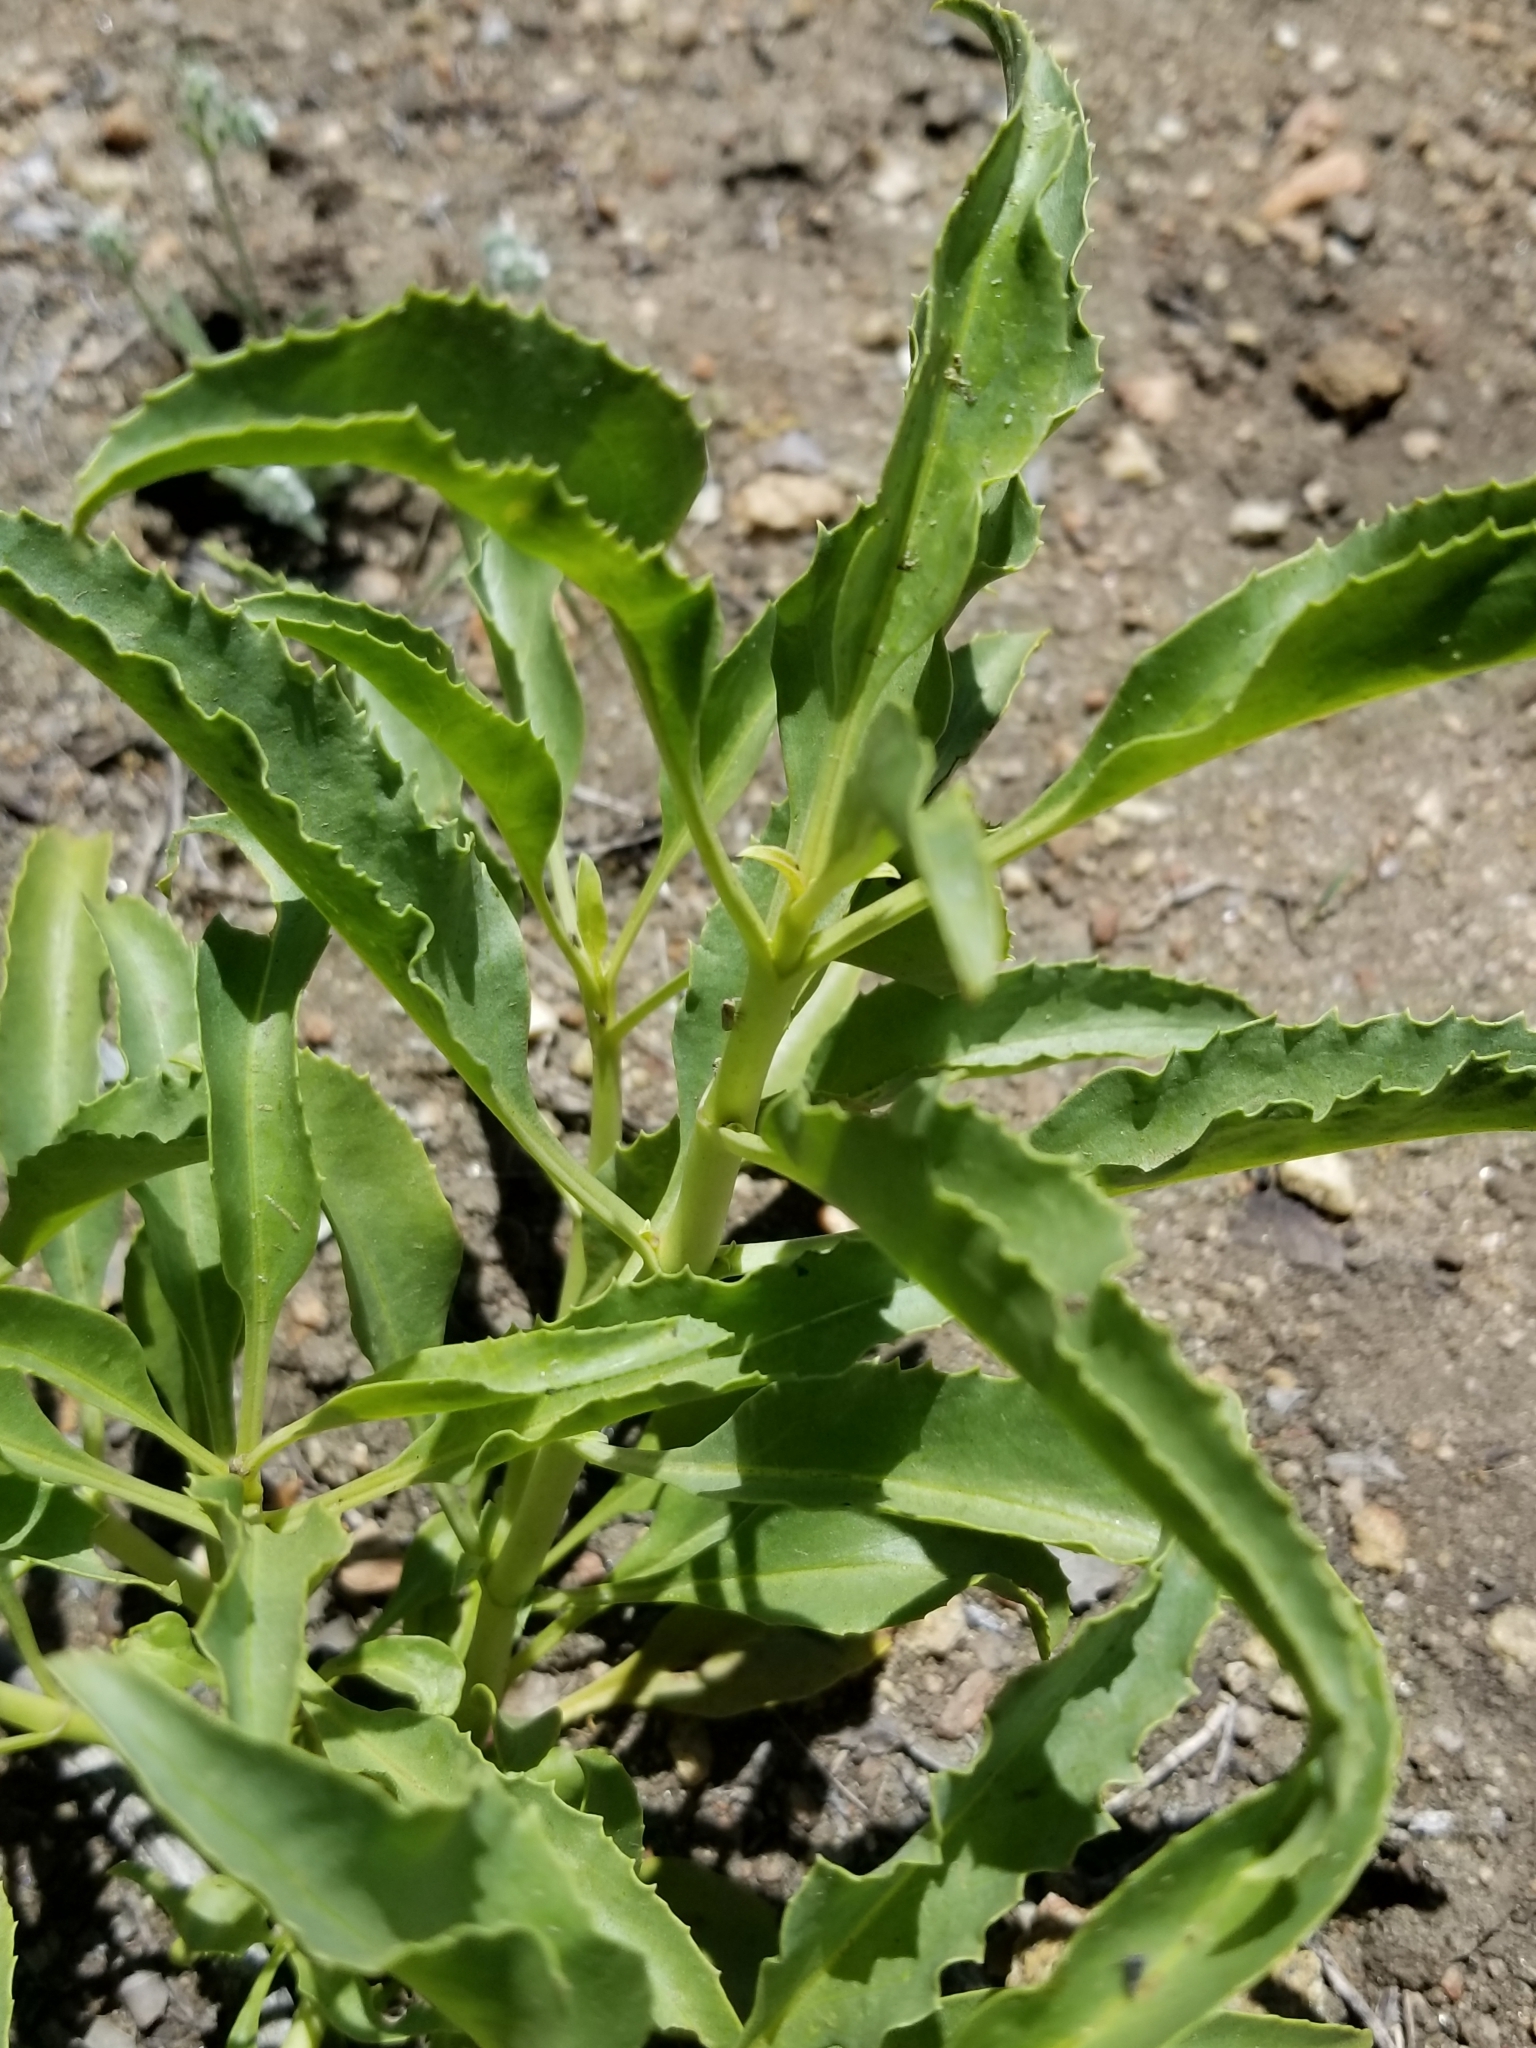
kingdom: Plantae
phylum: Tracheophyta
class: Magnoliopsida
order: Lamiales
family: Plantaginaceae
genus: Penstemon
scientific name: Penstemon spectabilis
